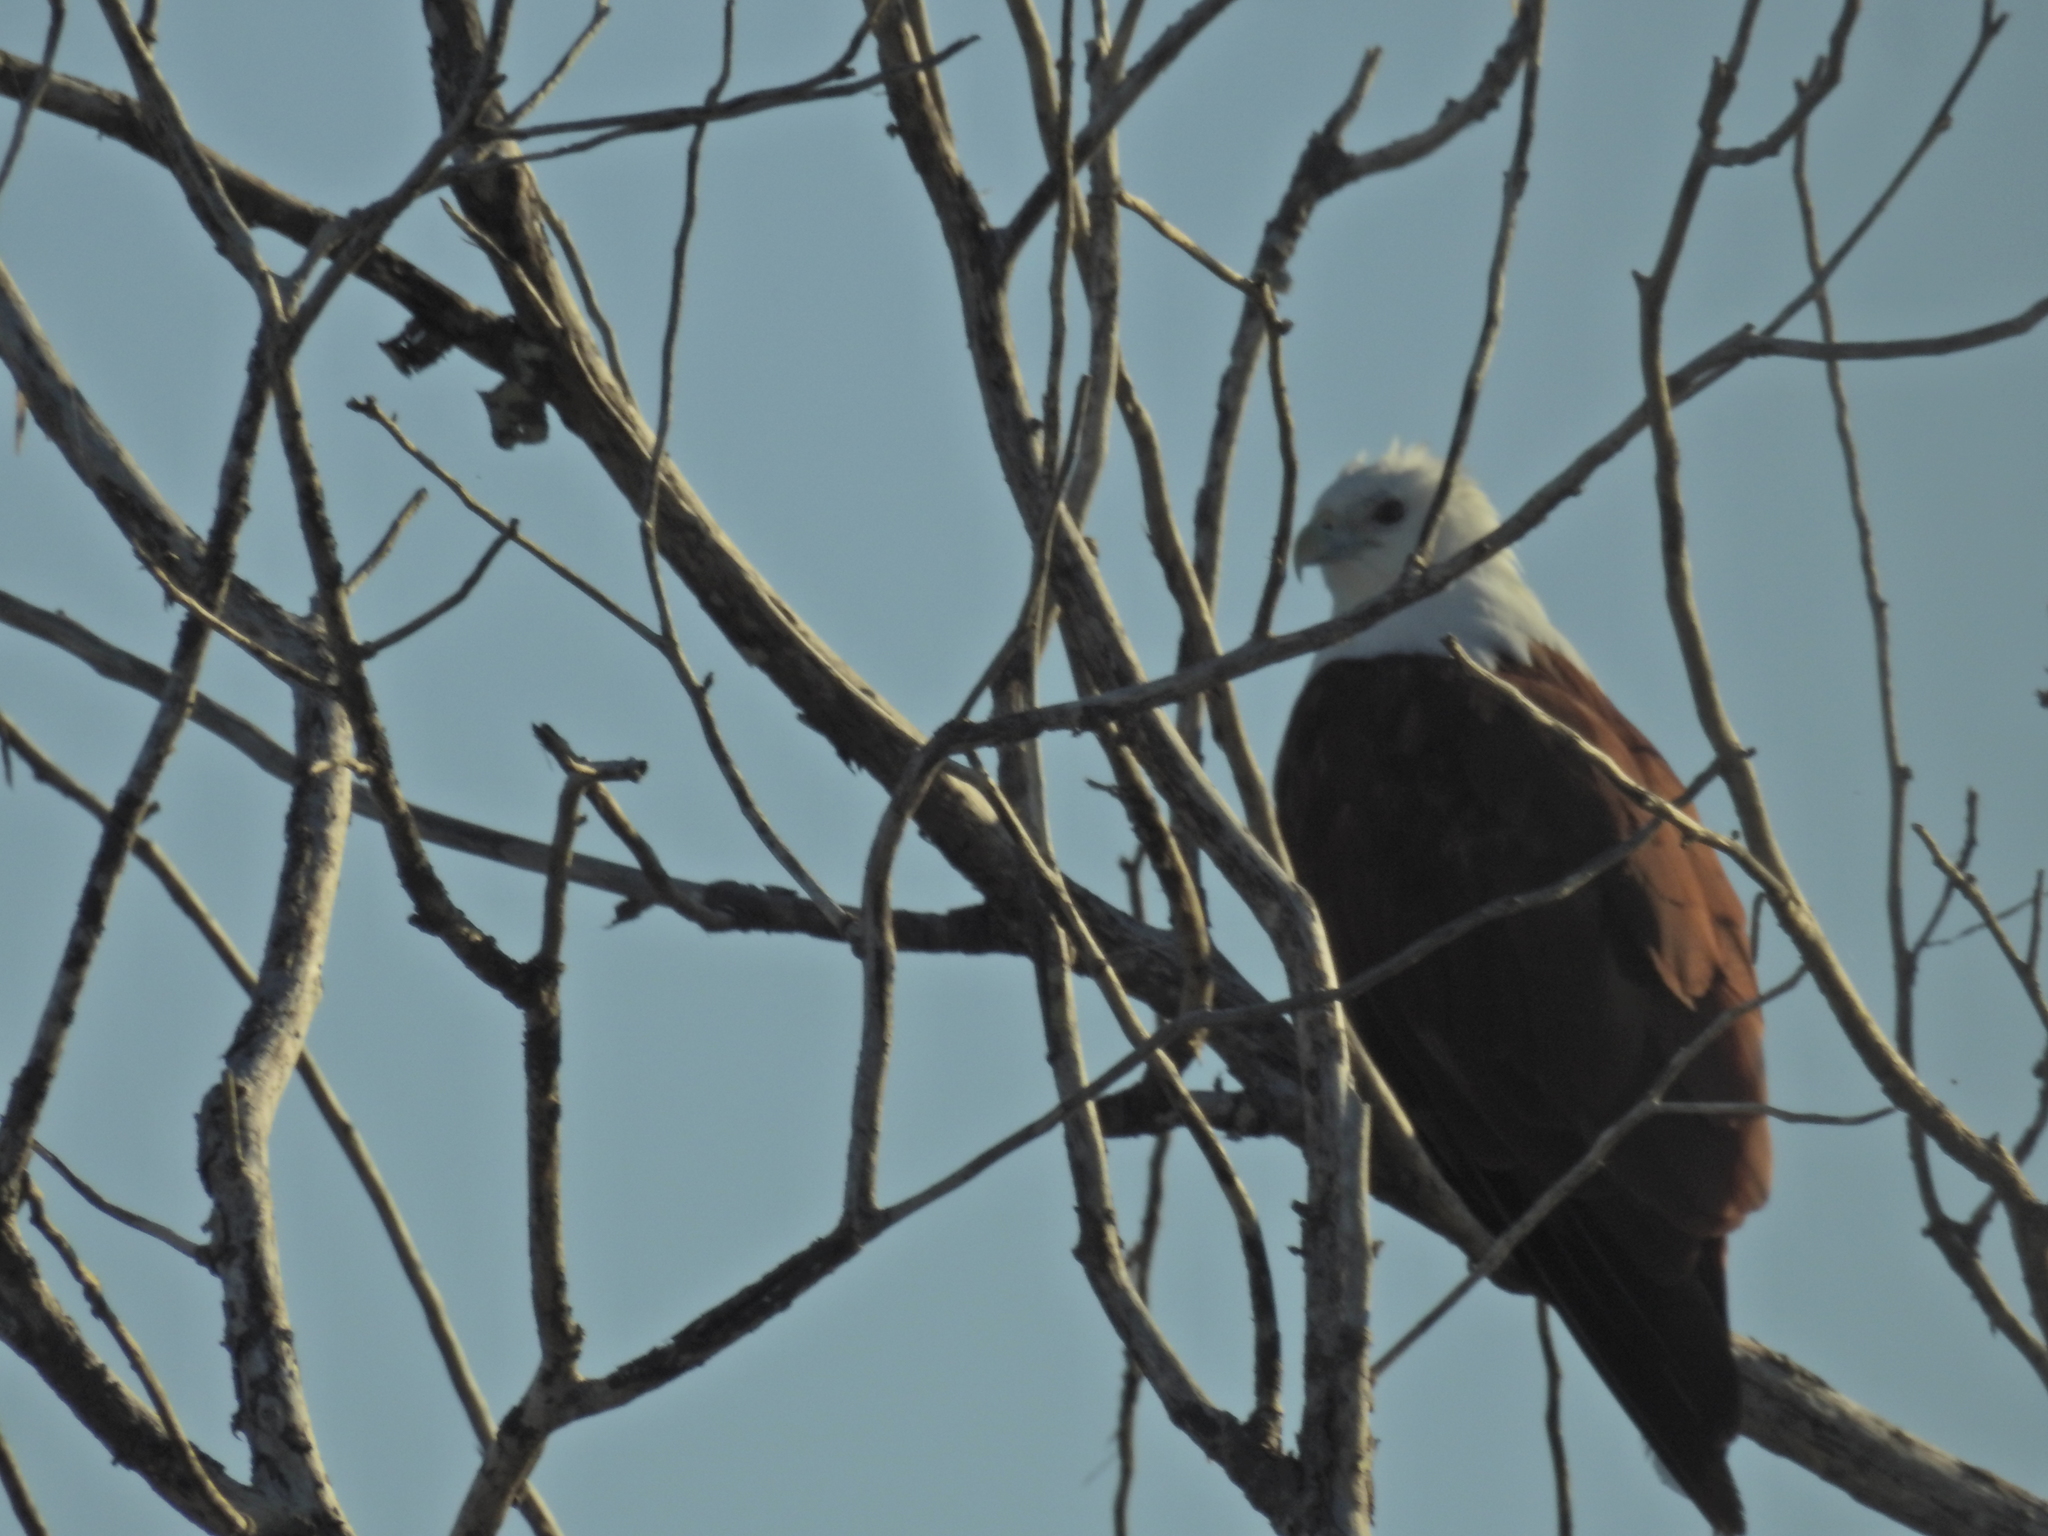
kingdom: Animalia
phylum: Chordata
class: Aves
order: Accipitriformes
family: Accipitridae
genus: Haliastur
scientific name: Haliastur indus
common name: Brahminy kite
